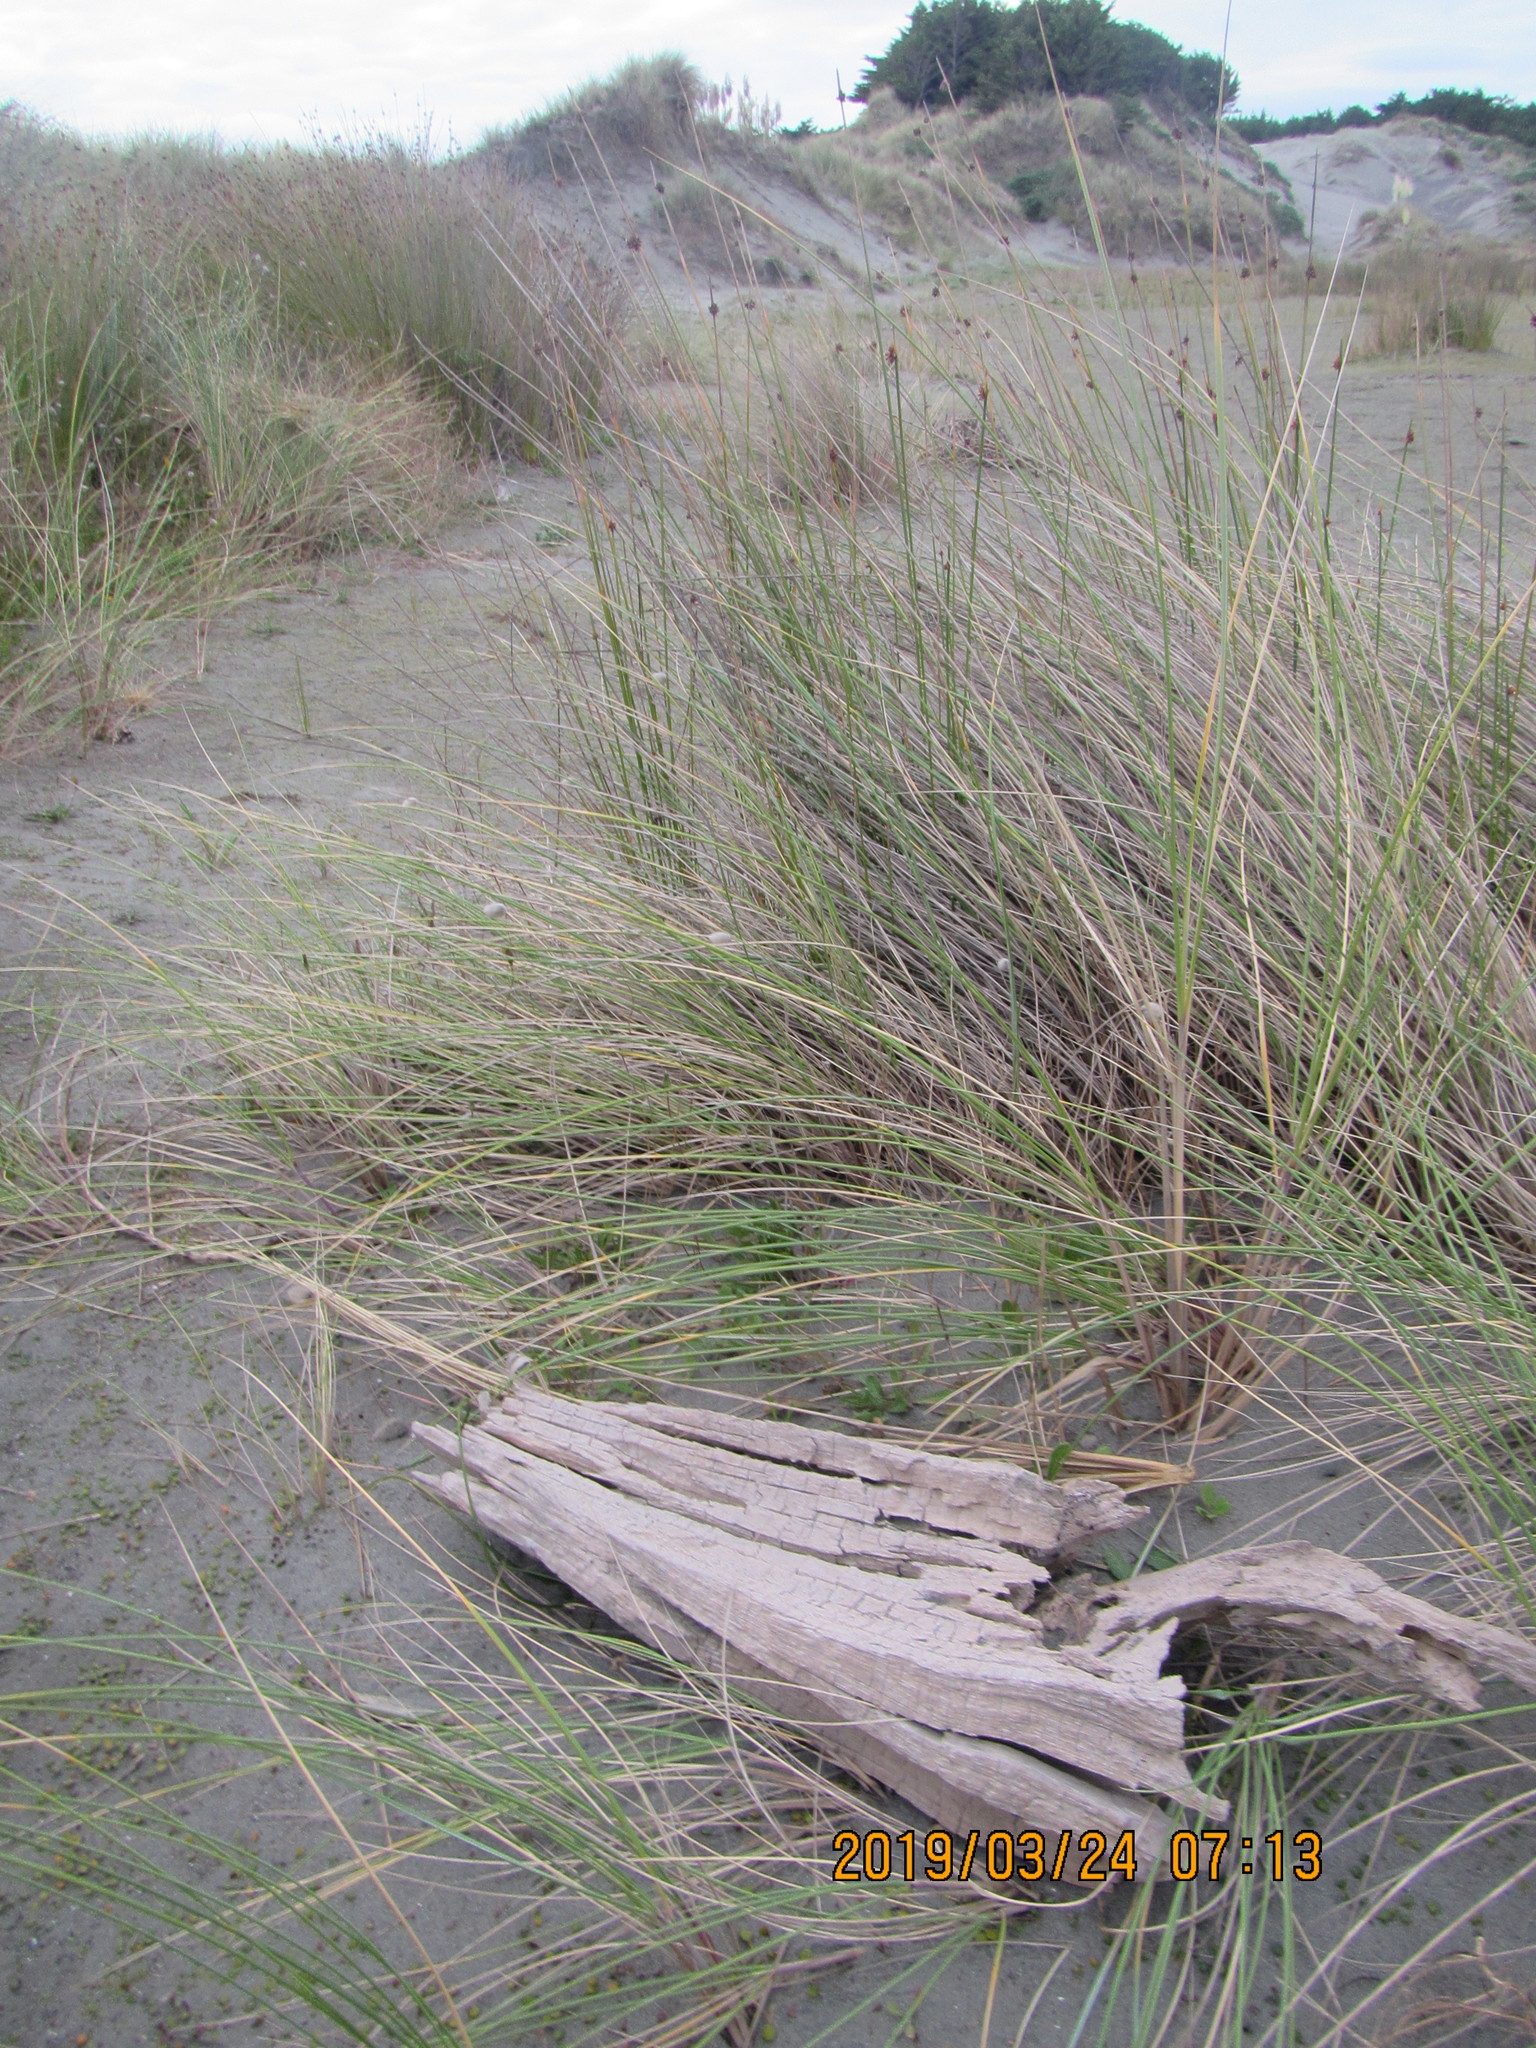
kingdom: Animalia
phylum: Arthropoda
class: Malacostraca
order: Isopoda
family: Porcellionidae
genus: Porcellio
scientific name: Porcellio scaber
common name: Common rough woodlouse
